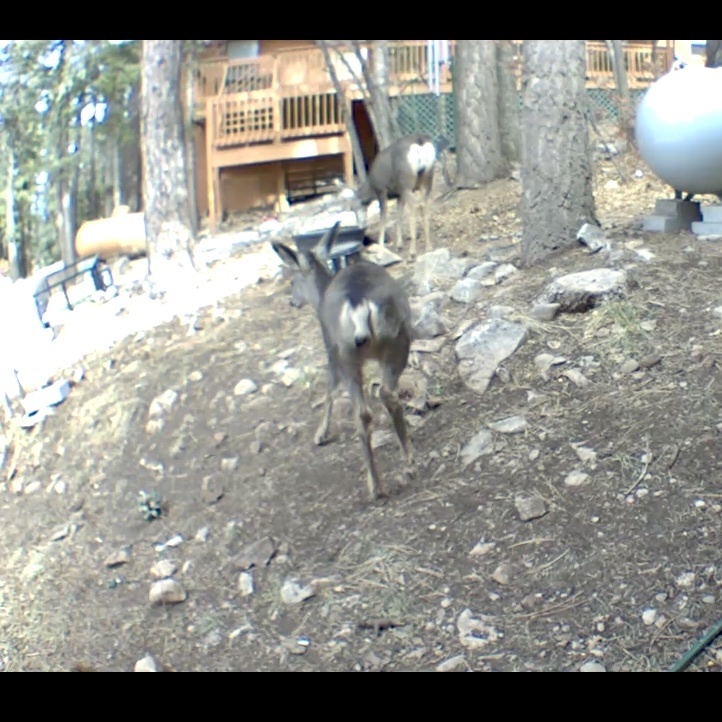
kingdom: Animalia
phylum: Chordata
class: Mammalia
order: Artiodactyla
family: Cervidae
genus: Odocoileus
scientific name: Odocoileus hemionus
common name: Mule deer
